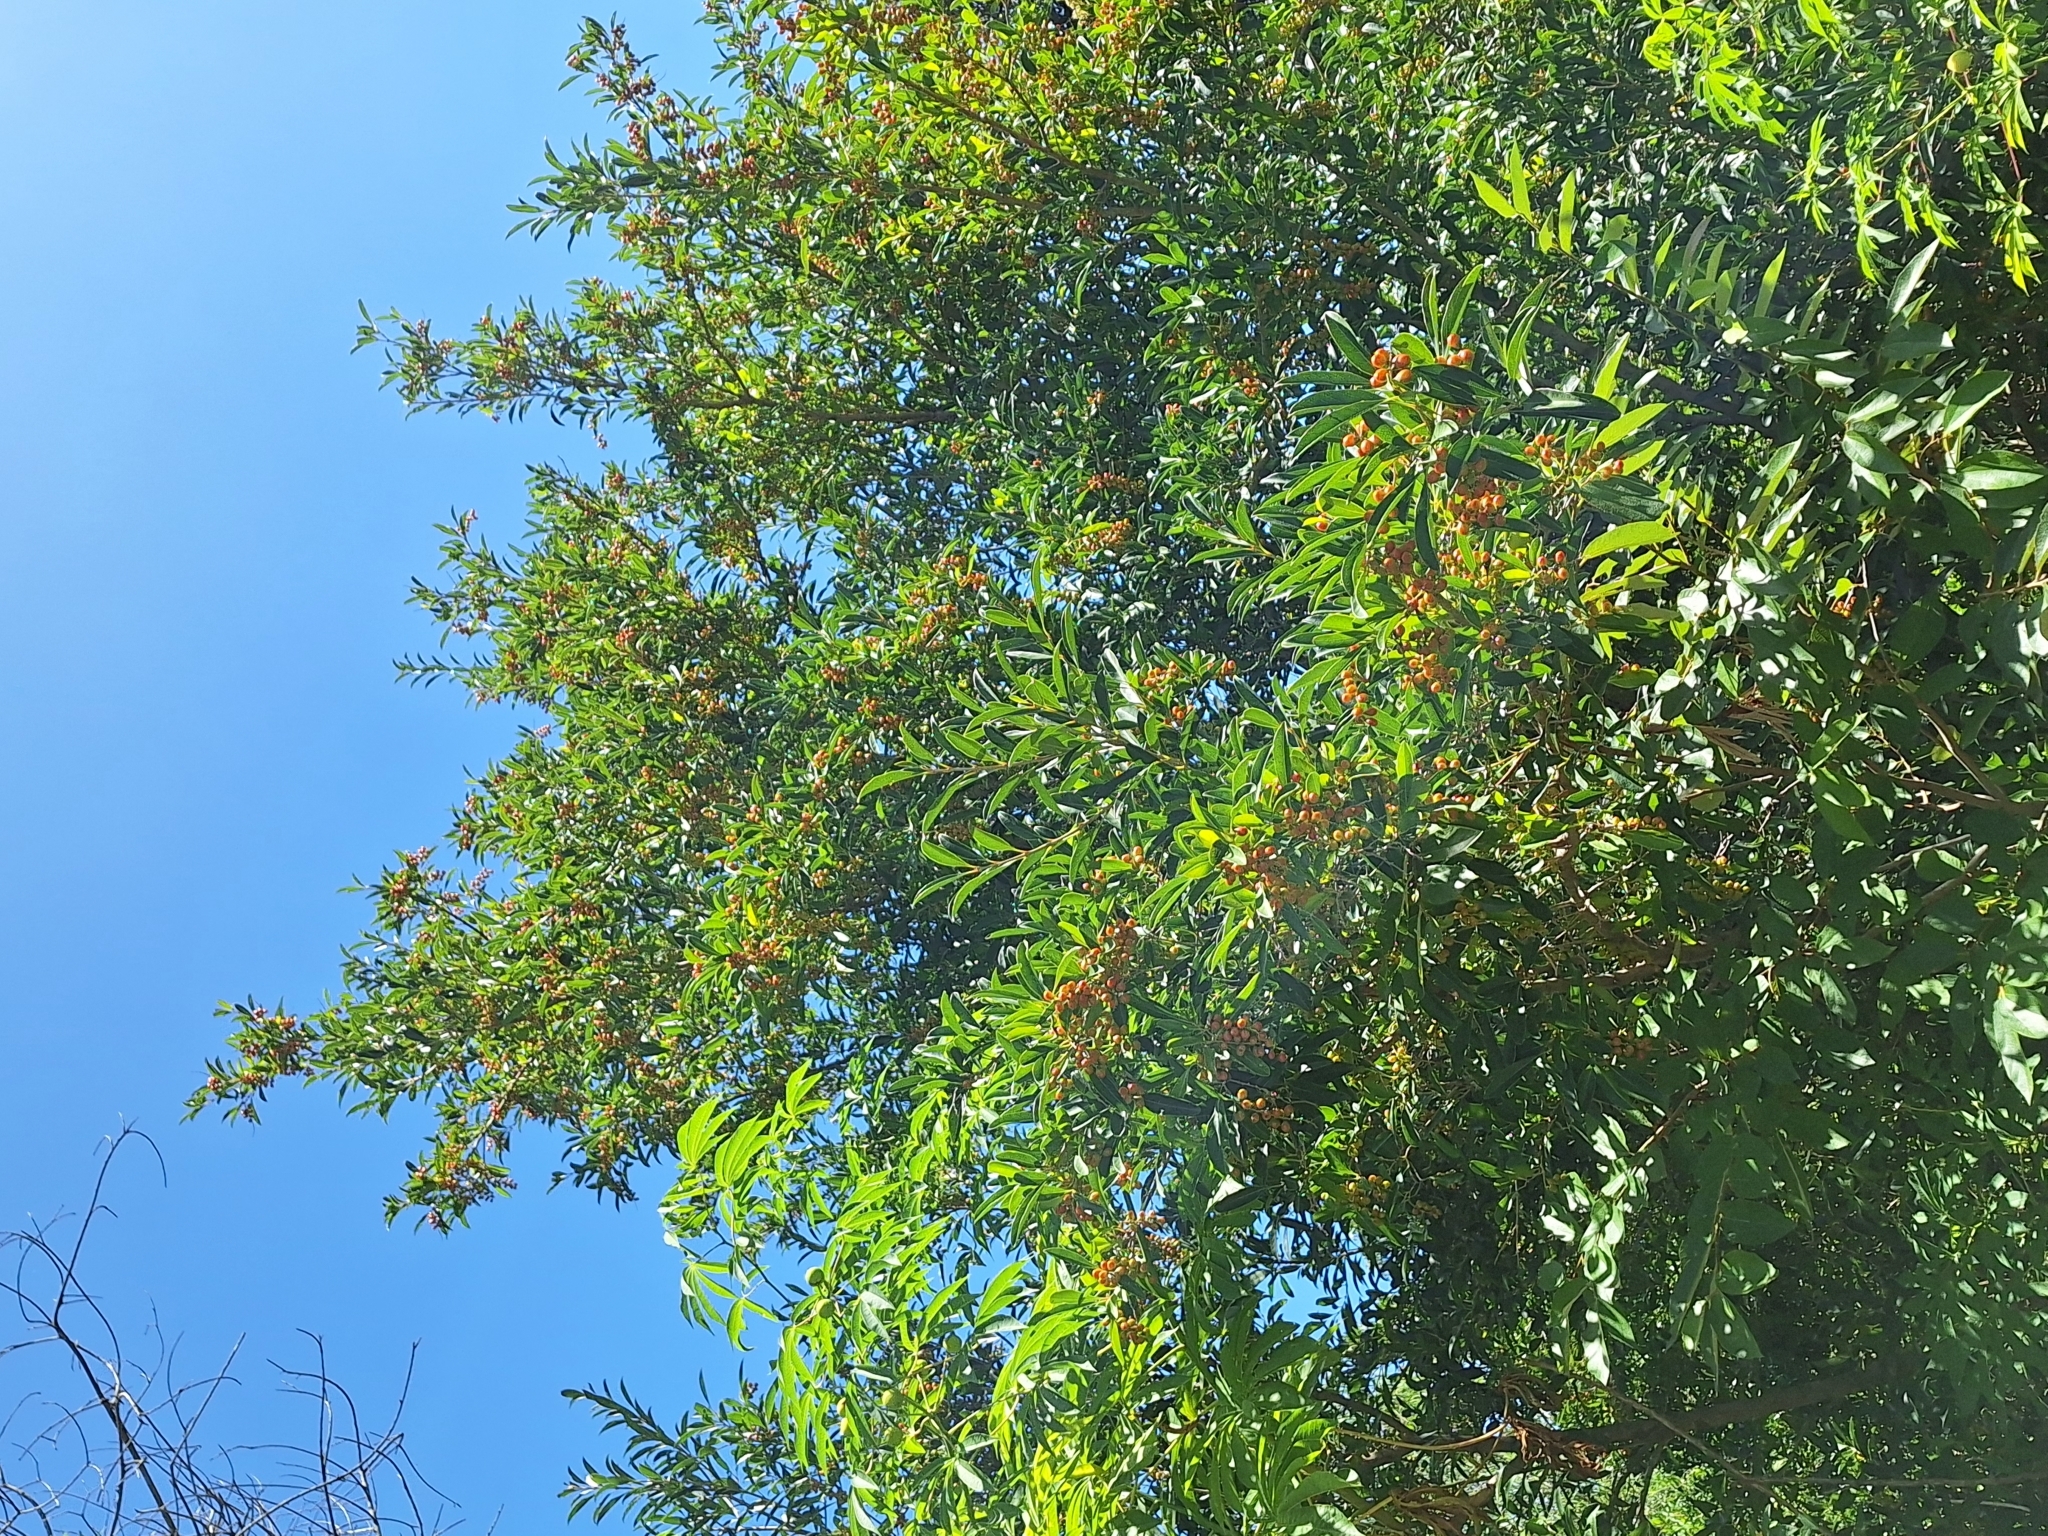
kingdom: Plantae
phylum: Tracheophyta
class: Magnoliopsida
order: Lamiales
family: Verbenaceae
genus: Citharexylum
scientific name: Citharexylum montevidense
